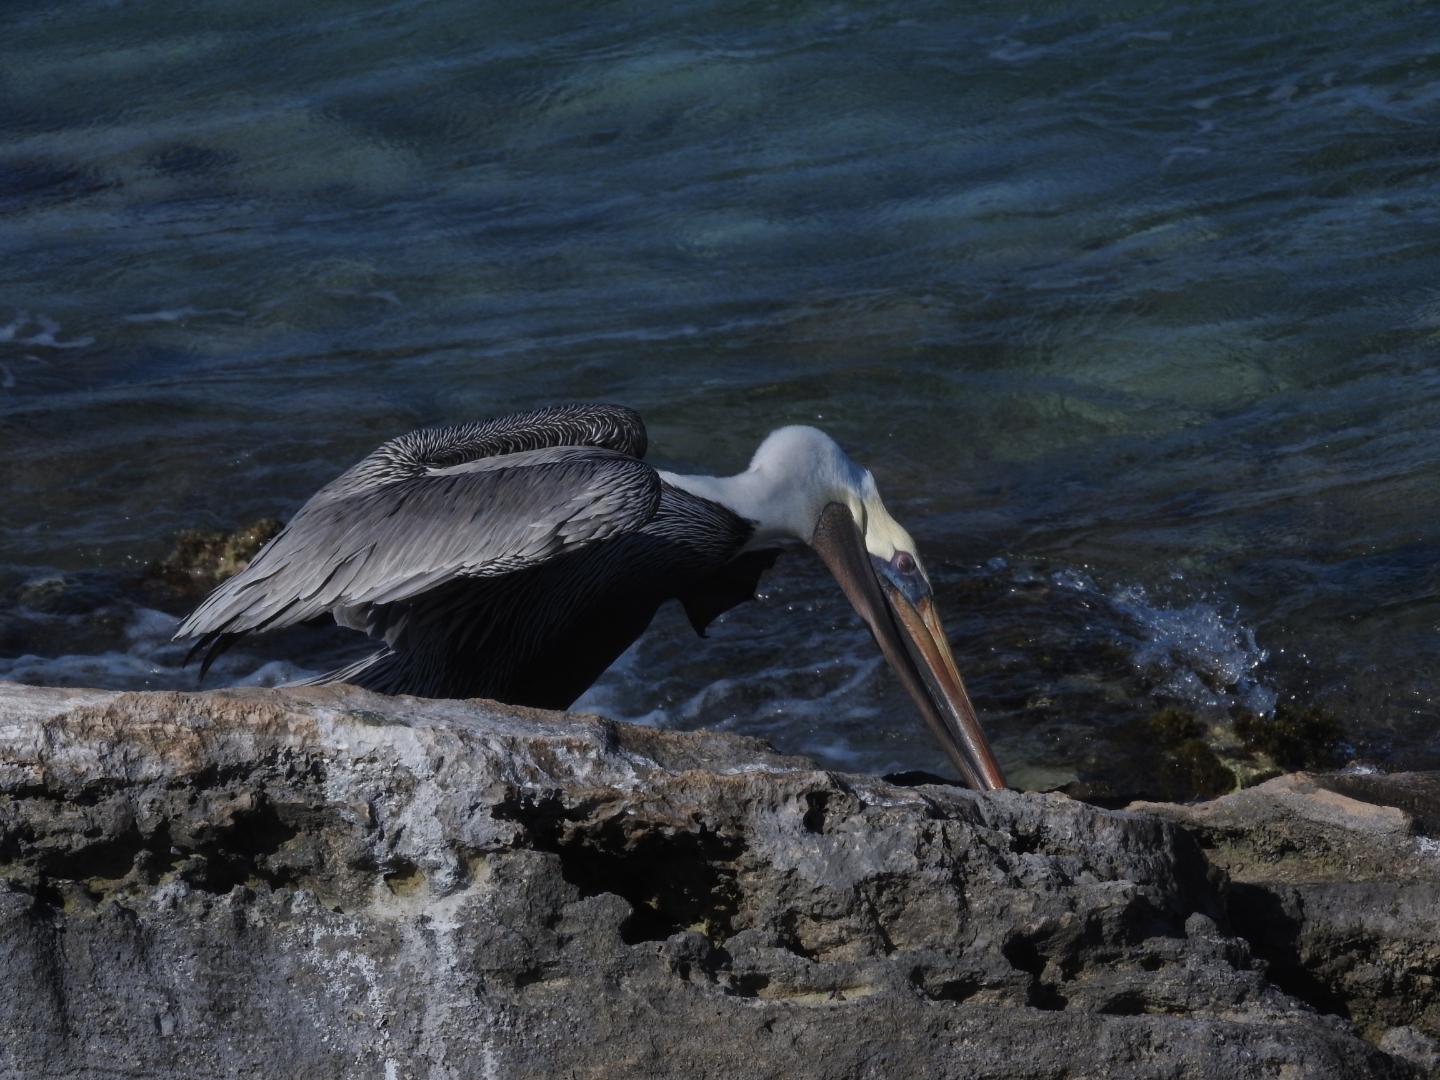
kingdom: Animalia
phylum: Chordata
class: Aves
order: Pelecaniformes
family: Pelecanidae
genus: Pelecanus
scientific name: Pelecanus occidentalis
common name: Brown pelican
